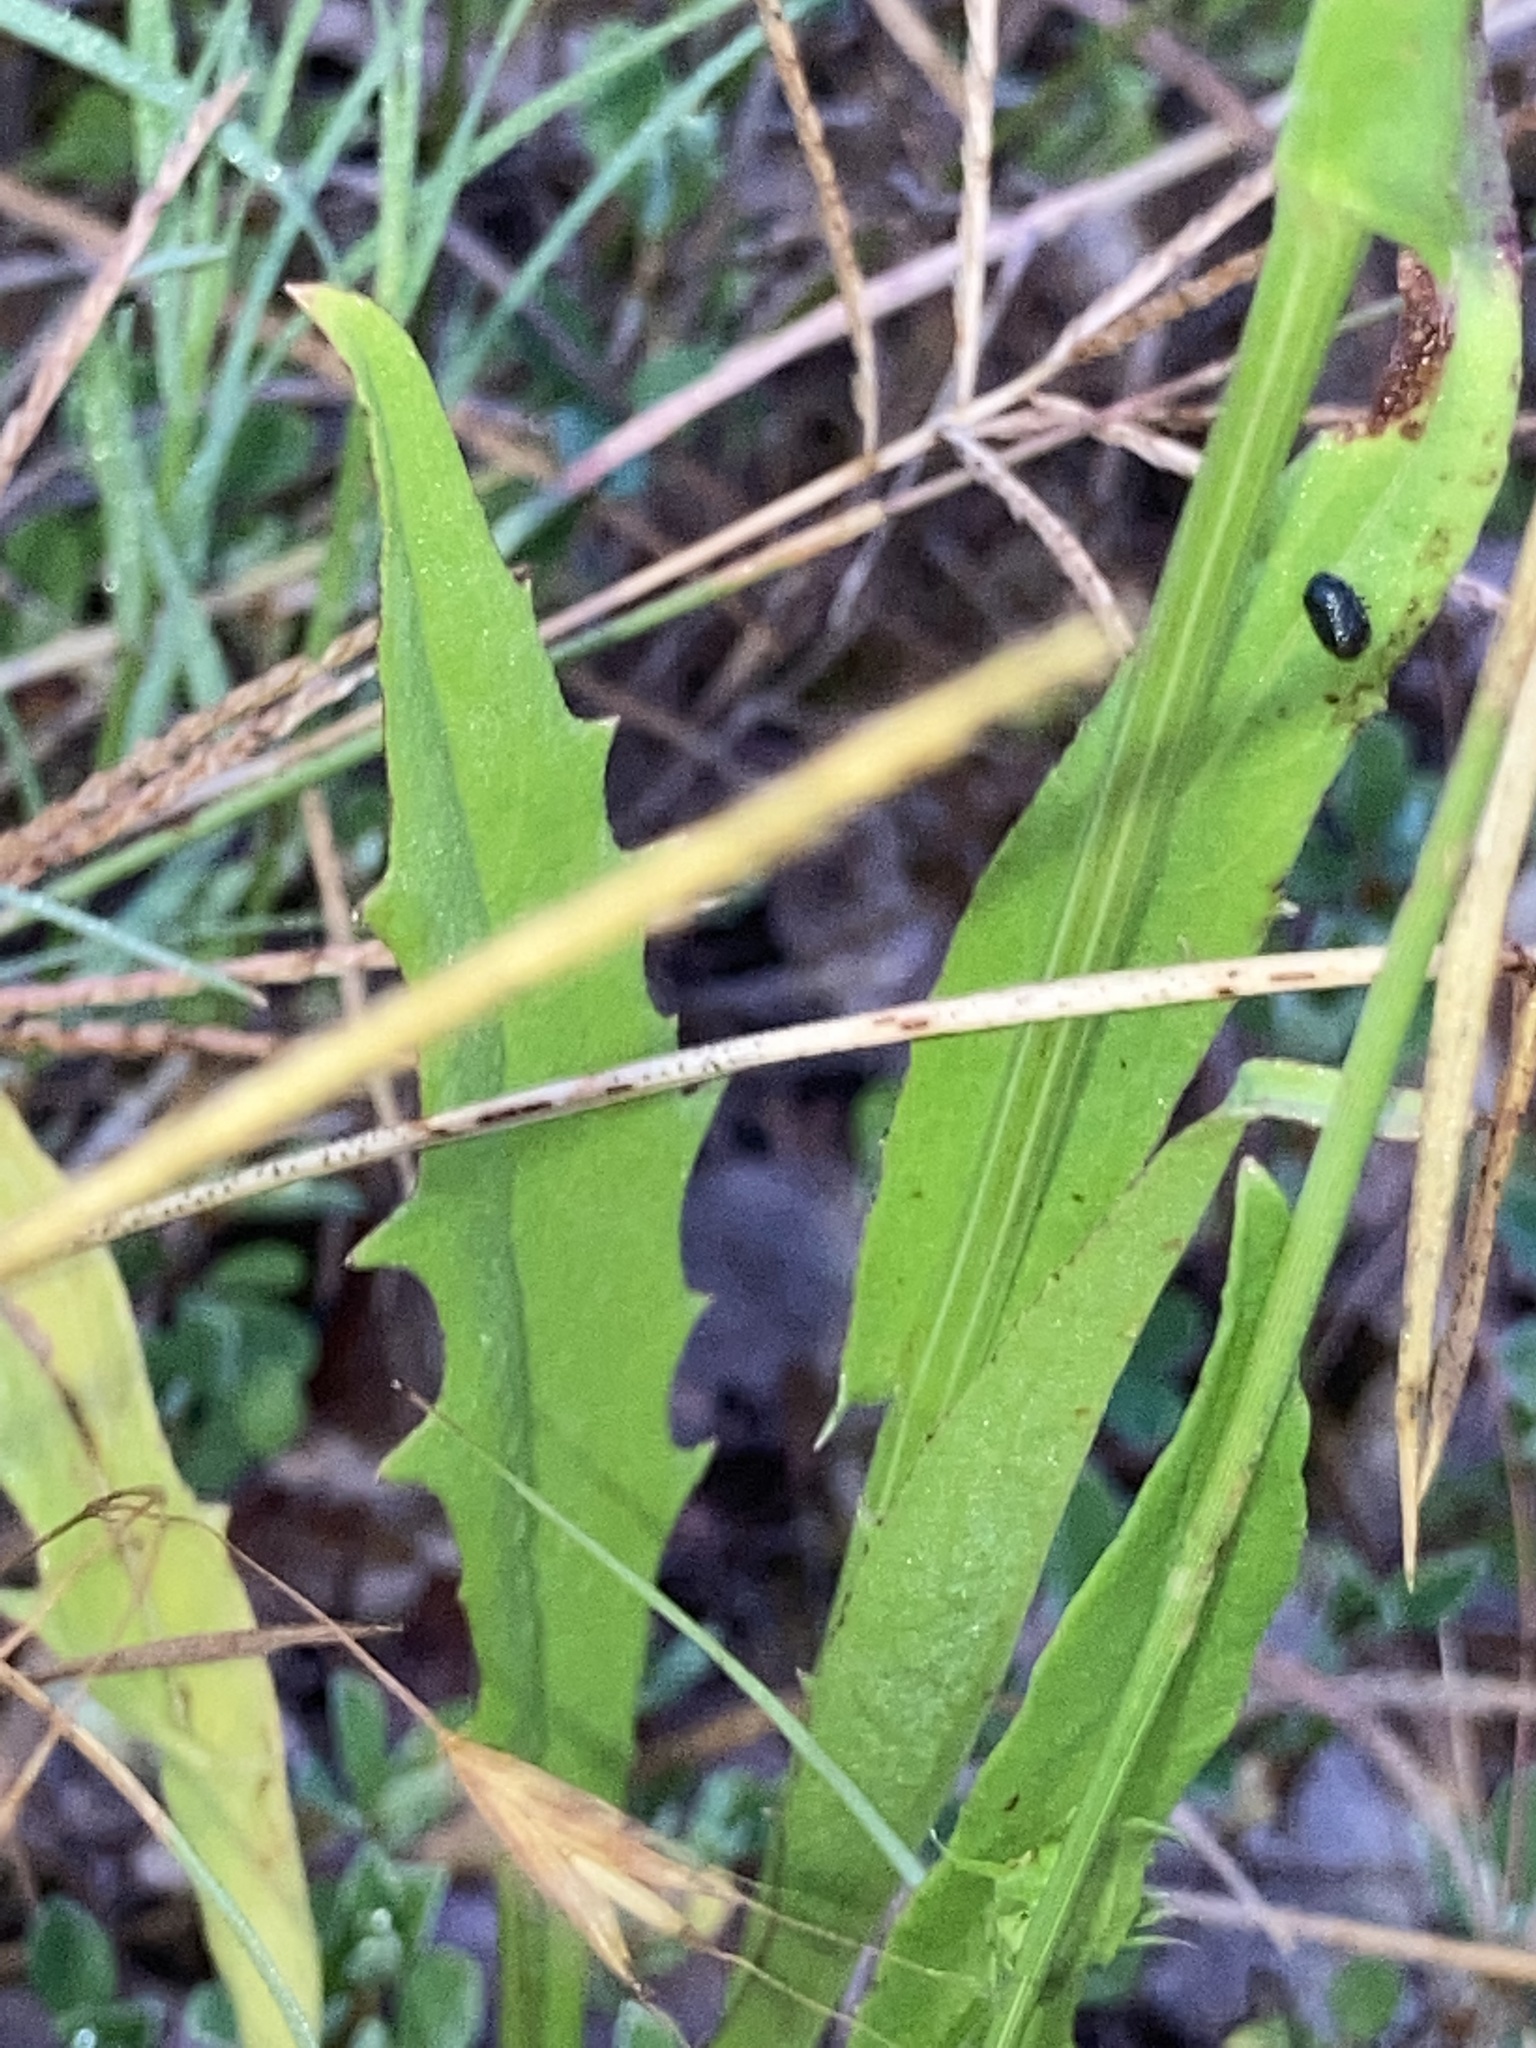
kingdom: Plantae
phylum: Tracheophyta
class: Magnoliopsida
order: Asterales
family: Asteraceae
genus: Pyrrhopappus
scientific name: Pyrrhopappus carolinianus
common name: Carolina desert-chicory
